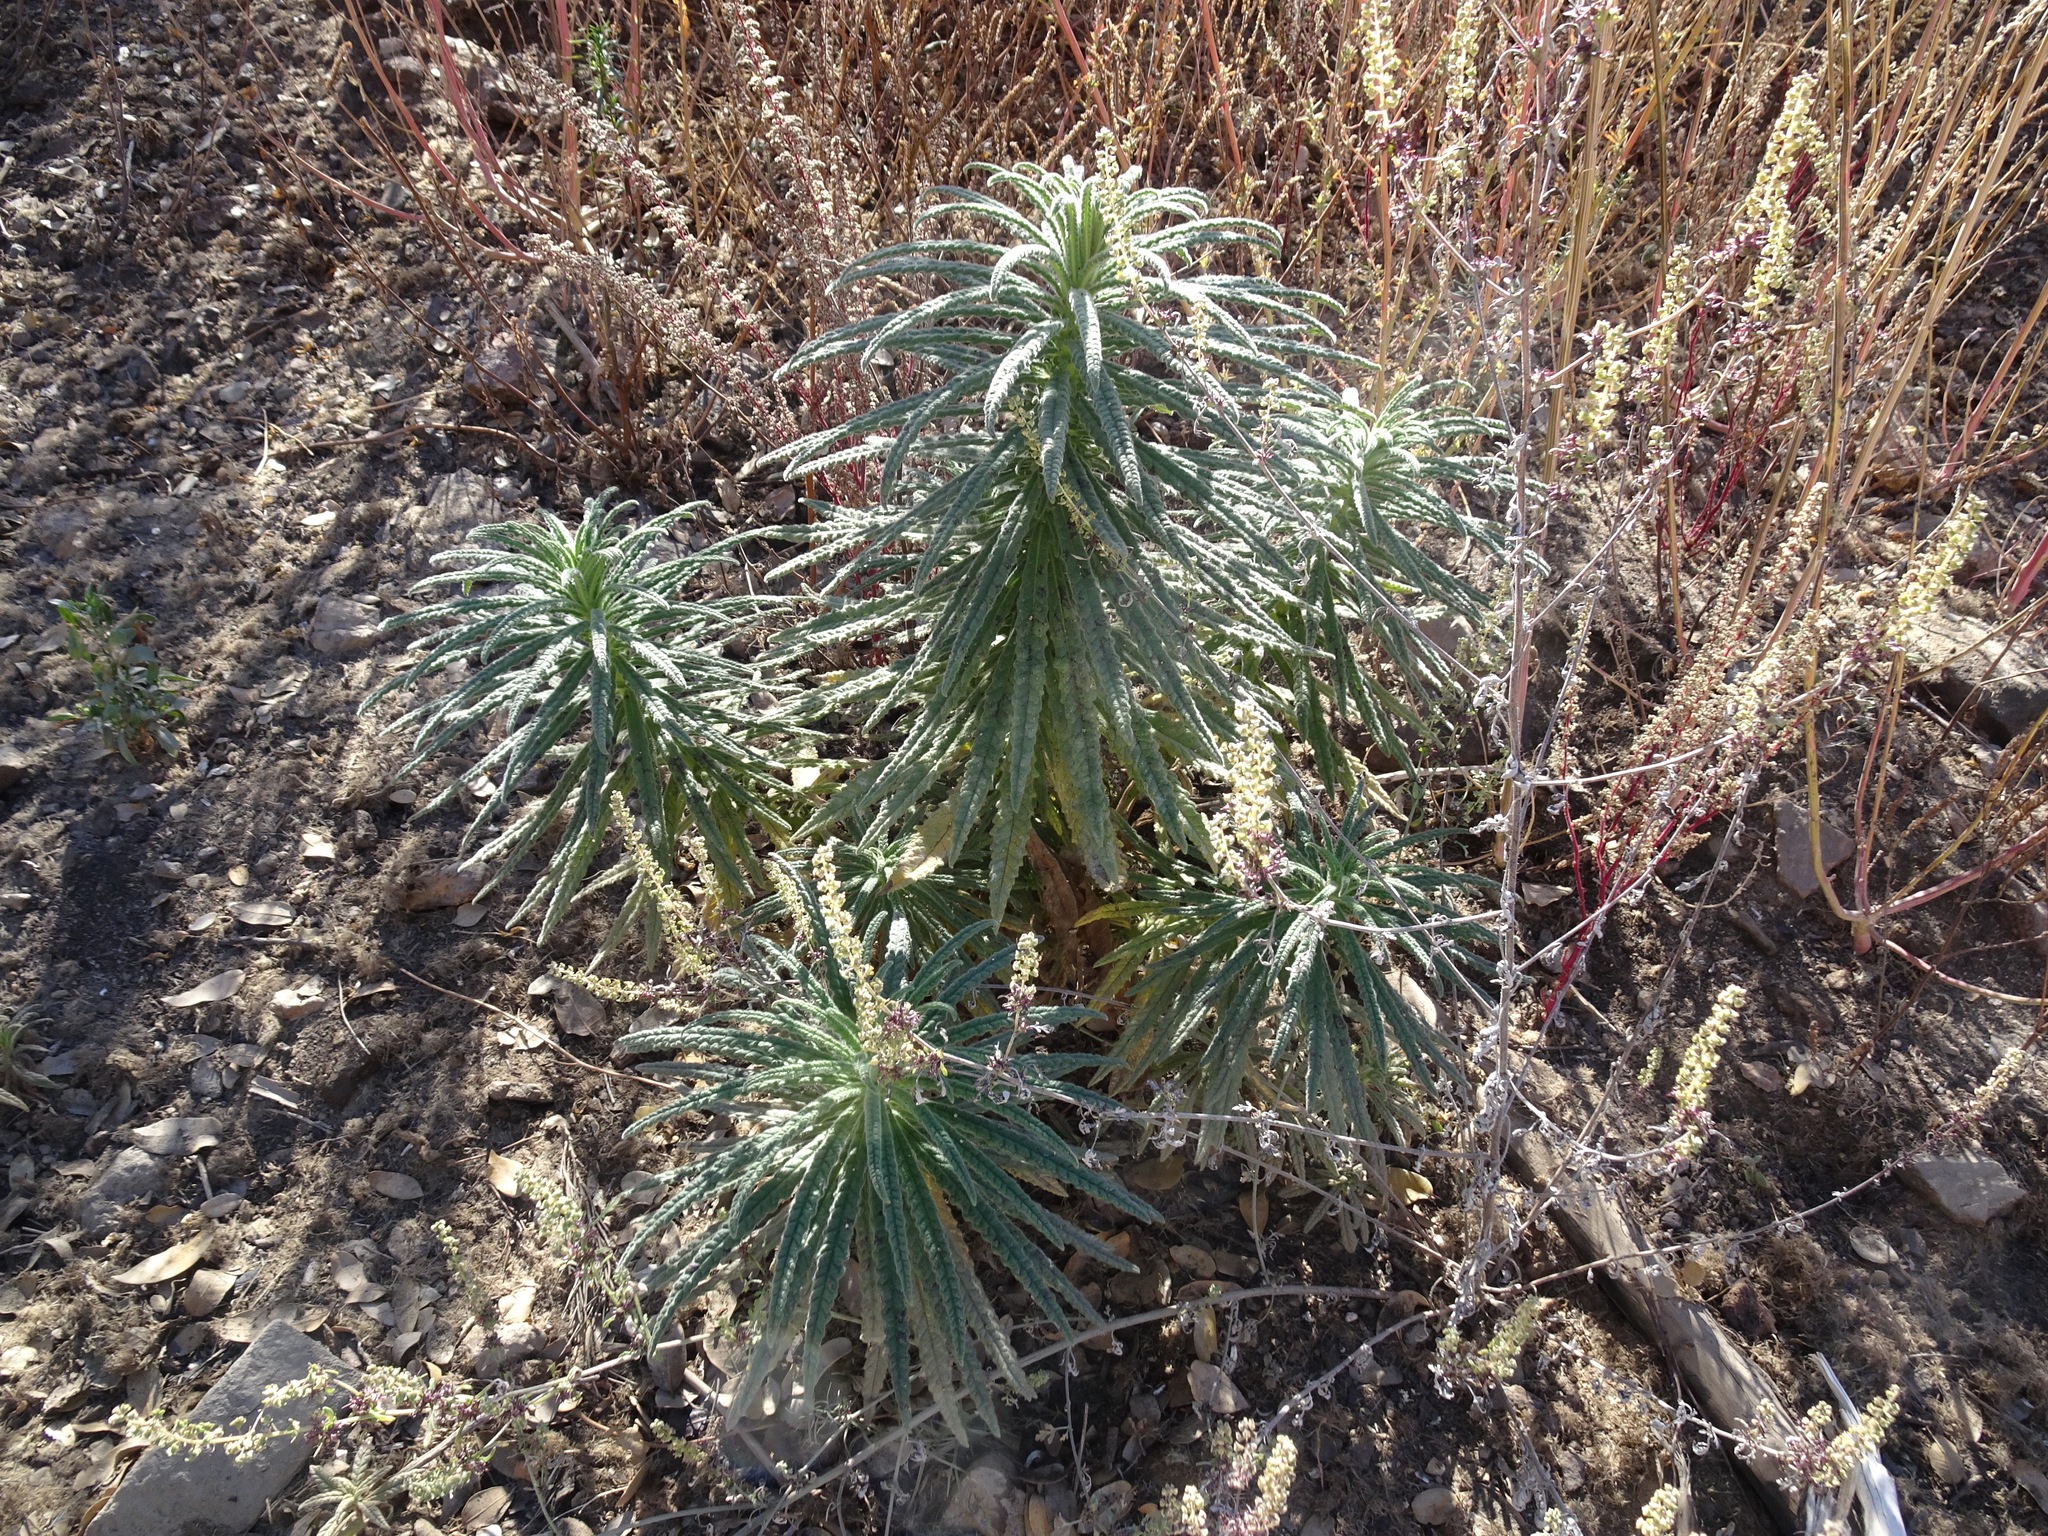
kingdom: Plantae
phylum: Tracheophyta
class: Magnoliopsida
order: Boraginales
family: Namaceae
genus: Turricula
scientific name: Turricula parryi
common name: Poodle-dog-bush
